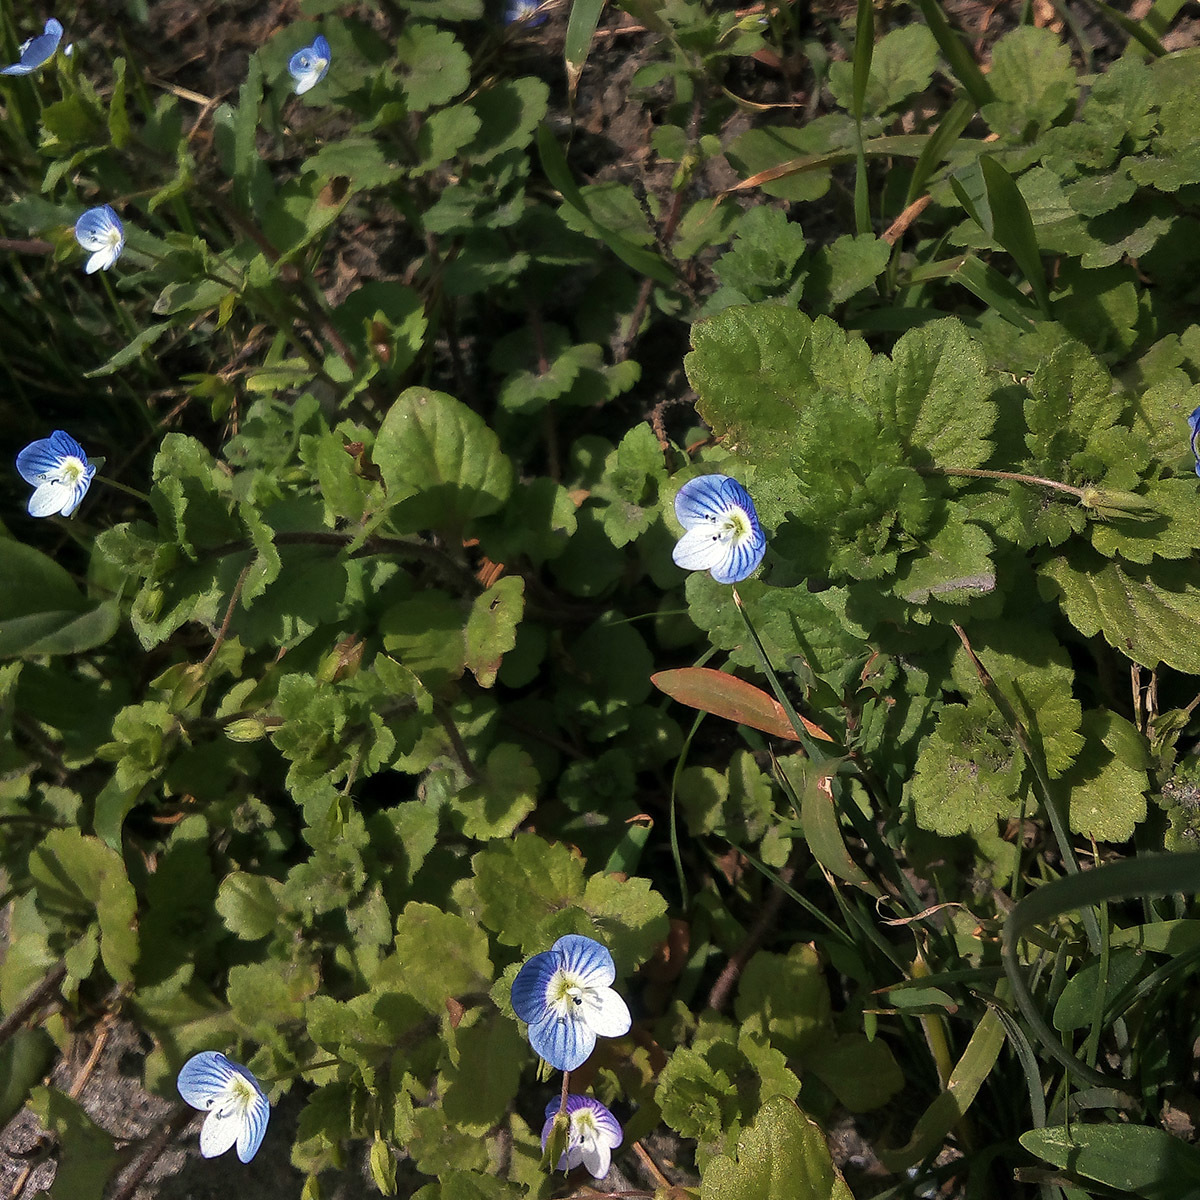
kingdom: Plantae
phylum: Tracheophyta
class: Magnoliopsida
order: Lamiales
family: Plantaginaceae
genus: Veronica
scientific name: Veronica persica
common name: Common field-speedwell
